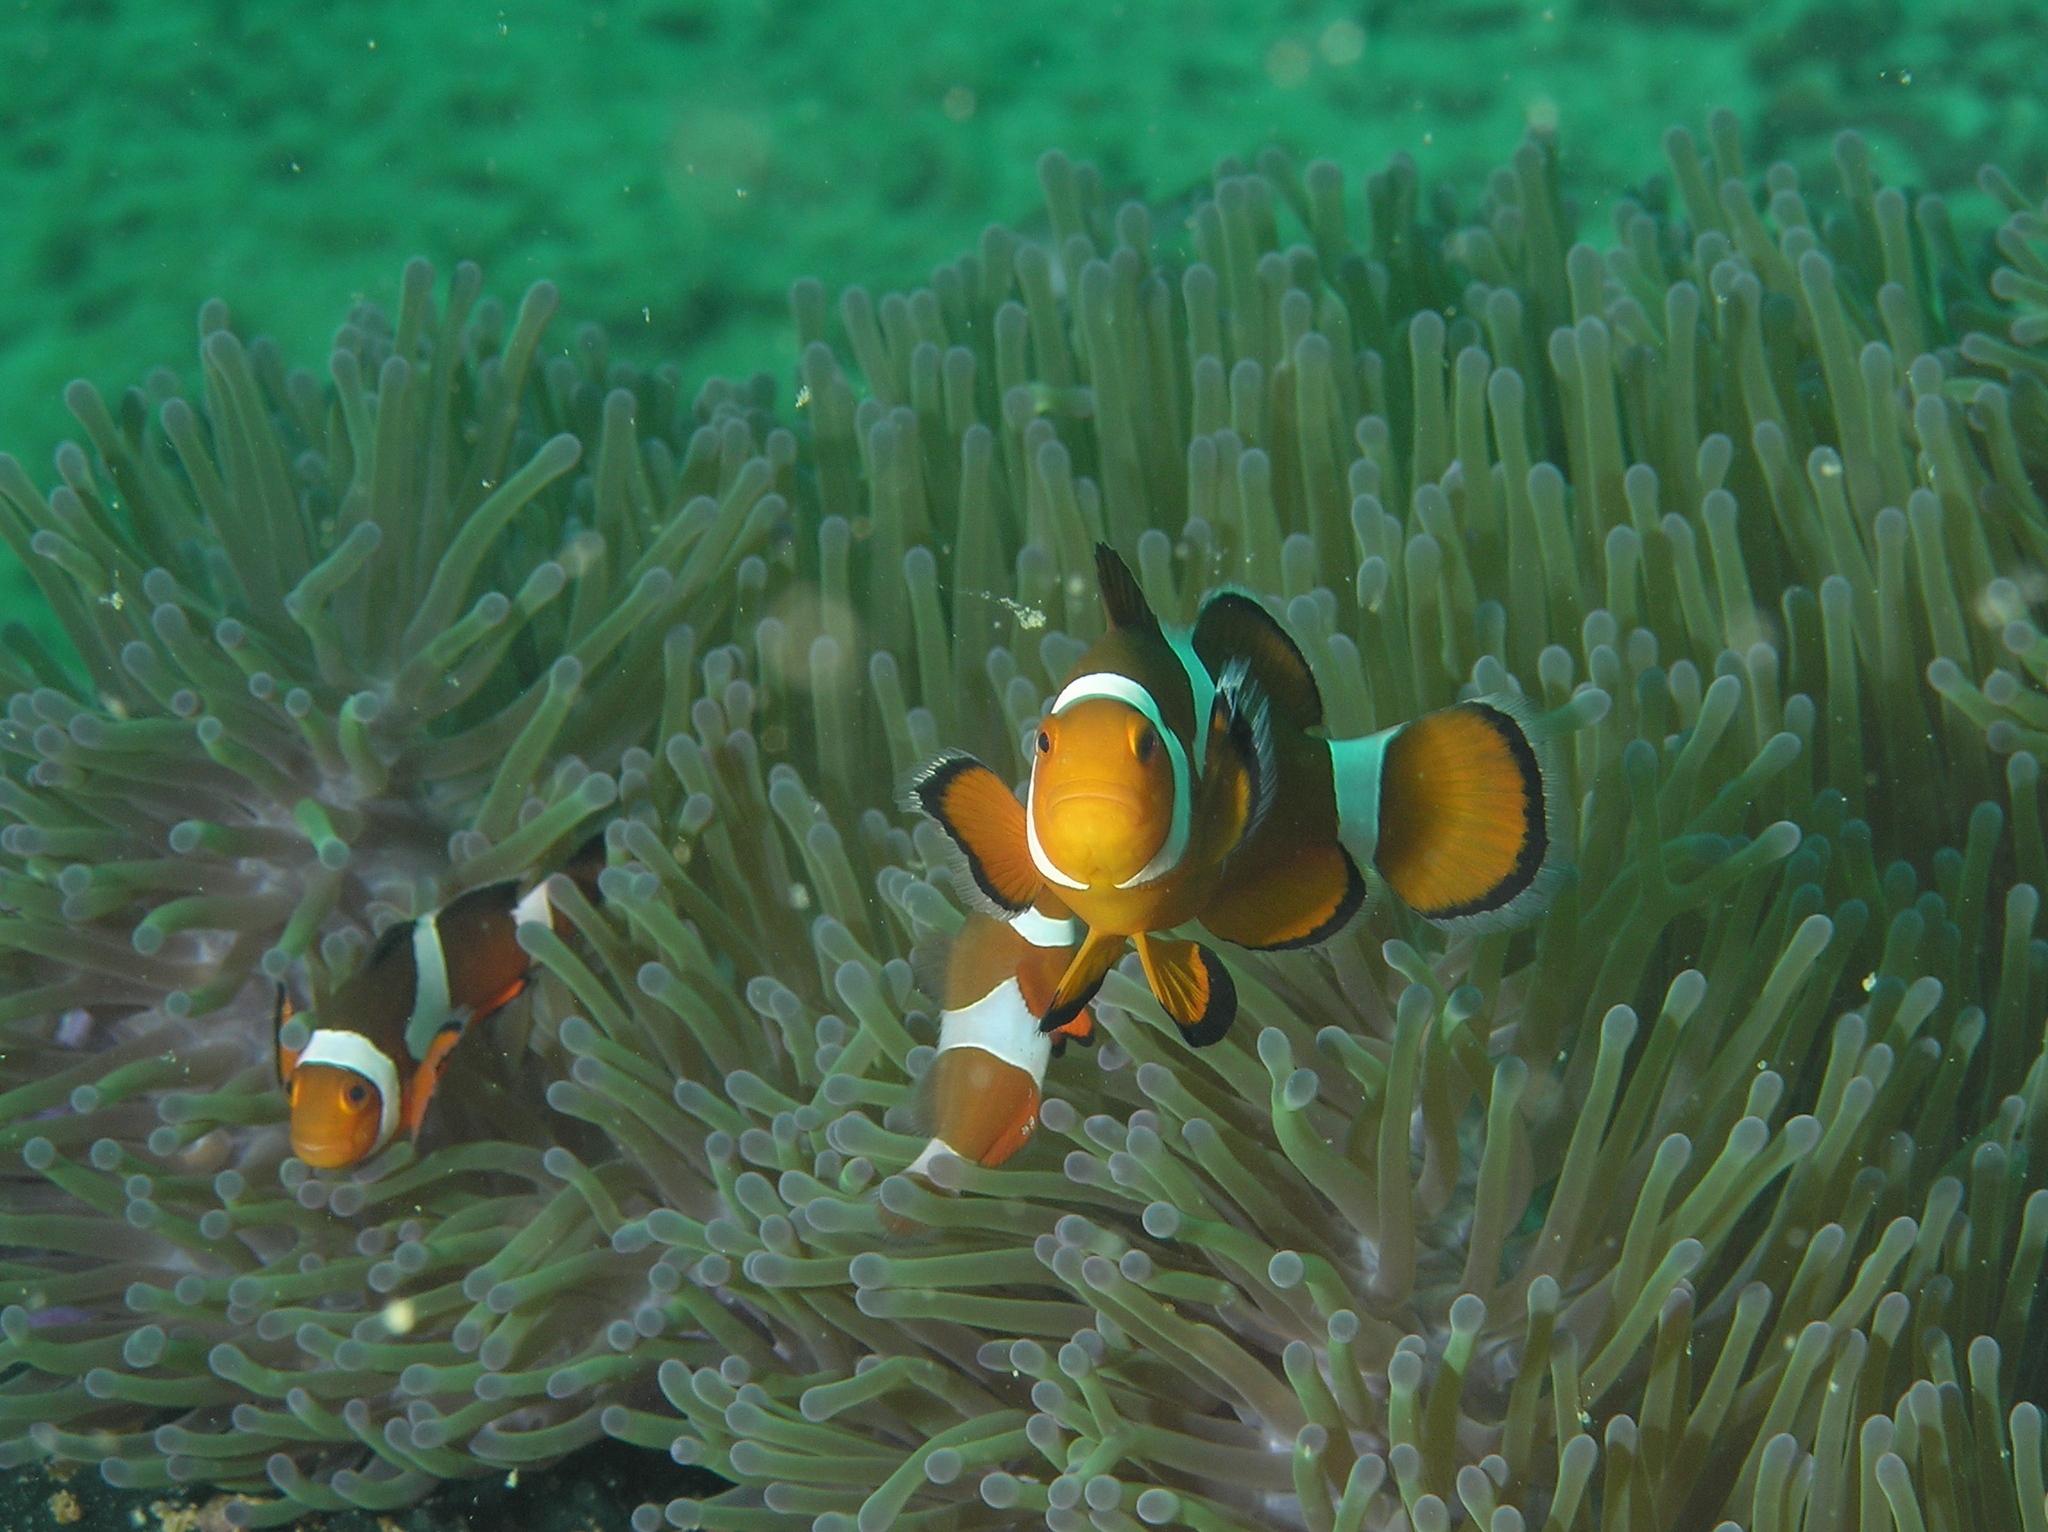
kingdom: Animalia
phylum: Chordata
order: Perciformes
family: Pomacentridae
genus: Amphiprion
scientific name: Amphiprion ocellaris
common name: Clown anemonefish
